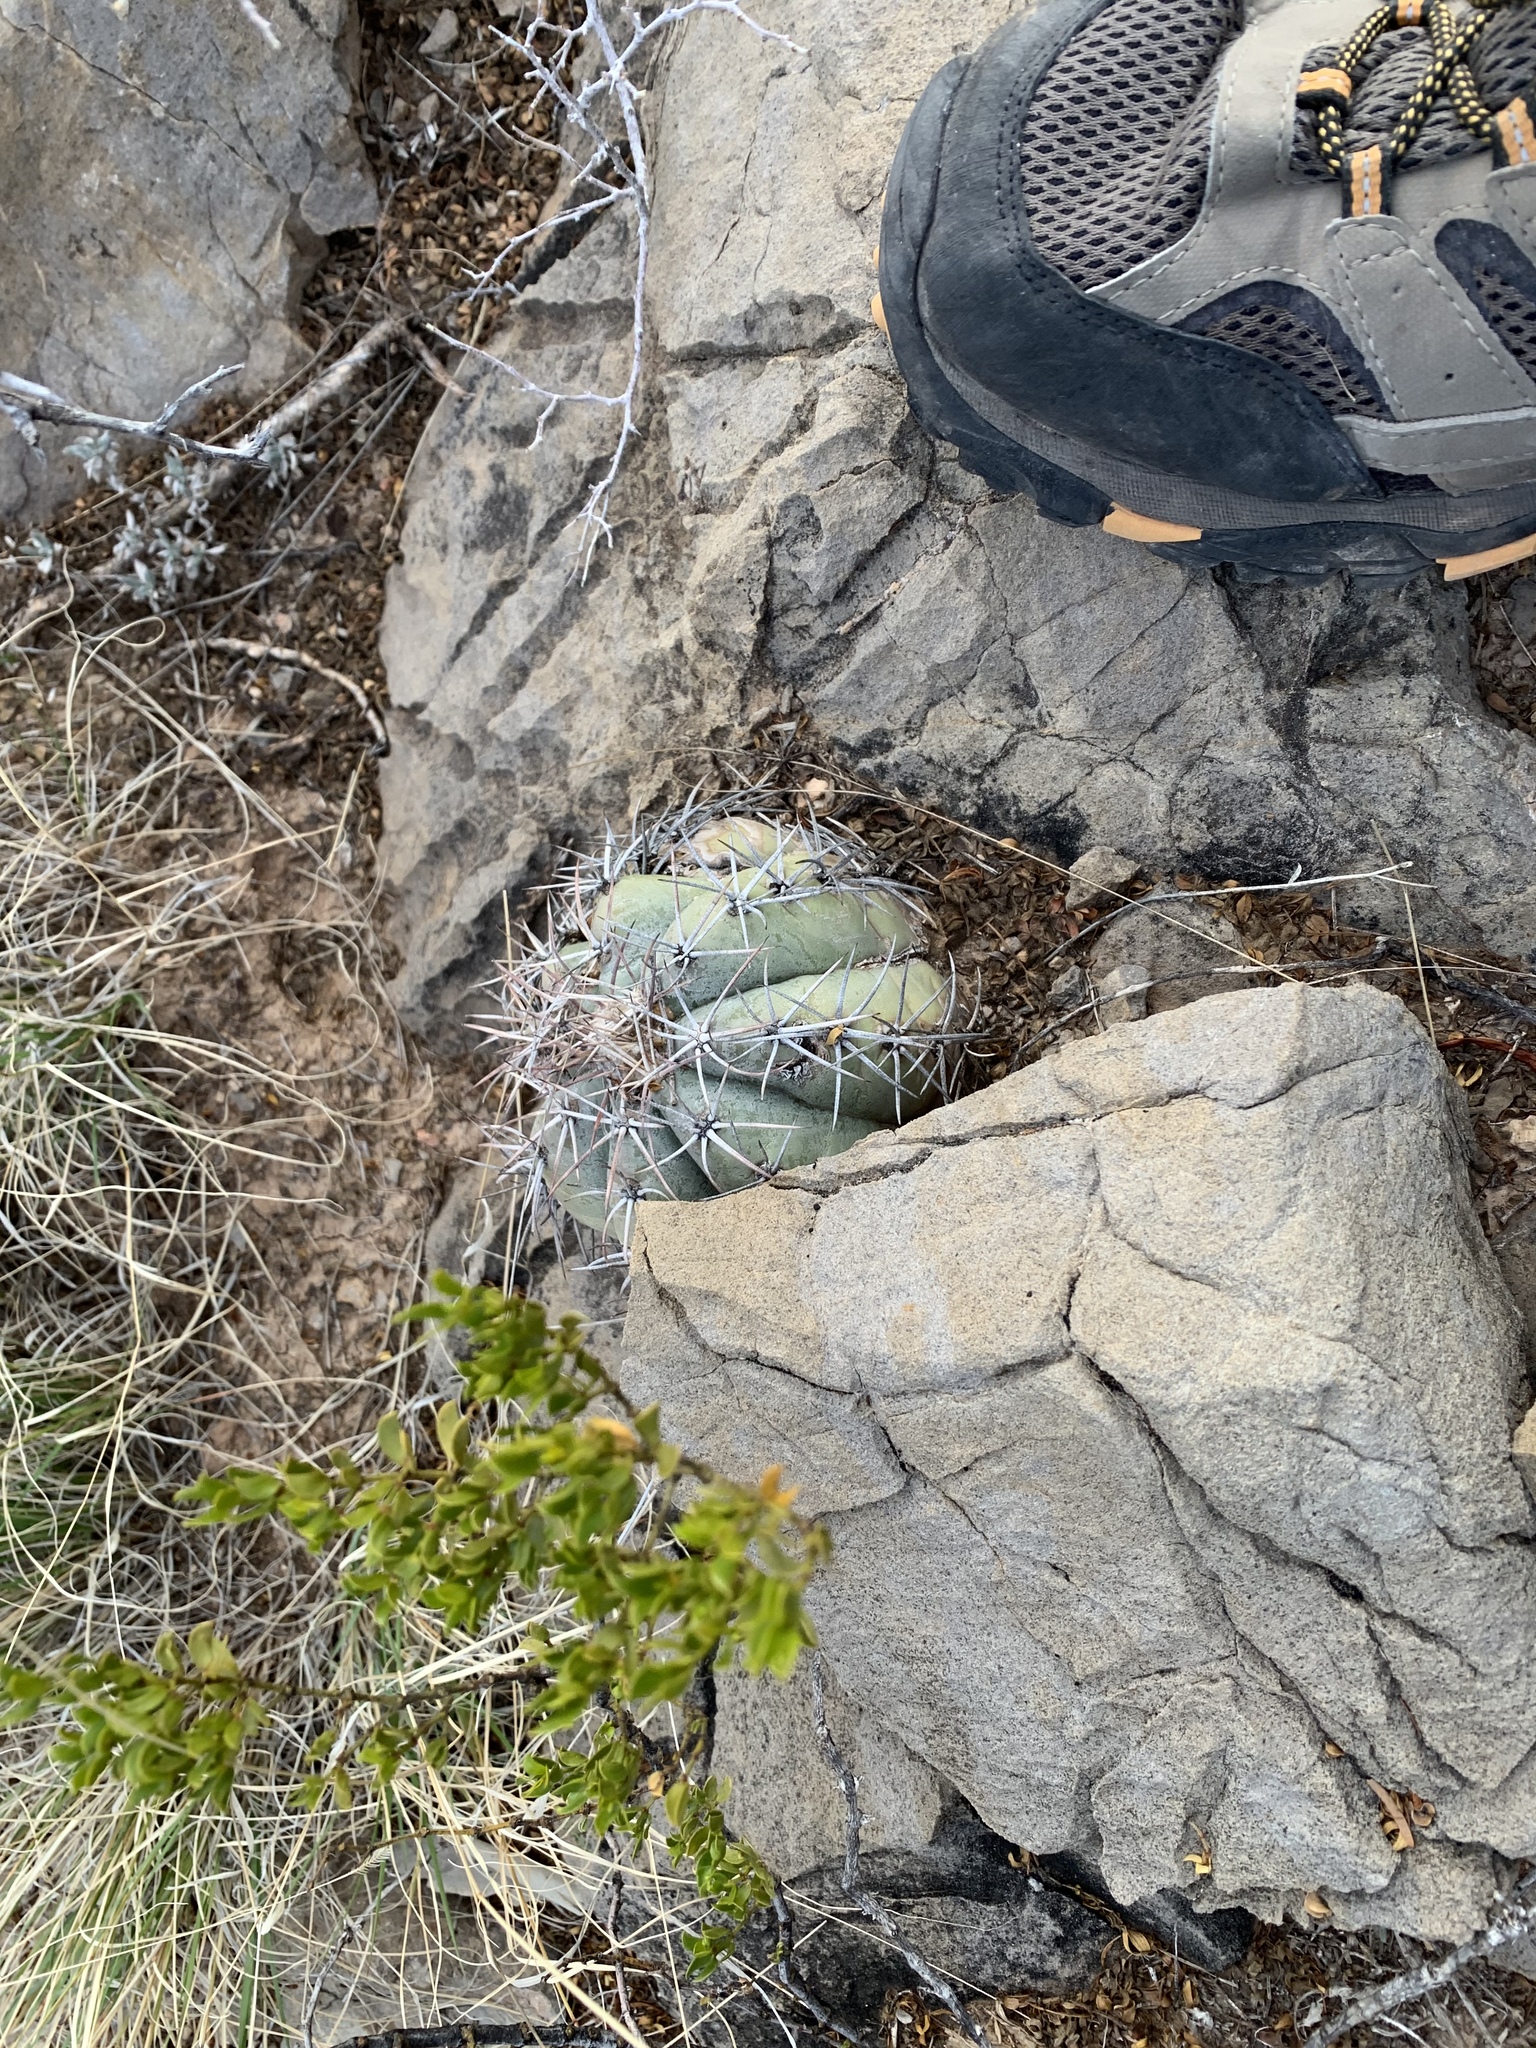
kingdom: Plantae
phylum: Tracheophyta
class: Magnoliopsida
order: Caryophyllales
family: Cactaceae
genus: Echinocactus
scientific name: Echinocactus horizonthalonius
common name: Devilshead
